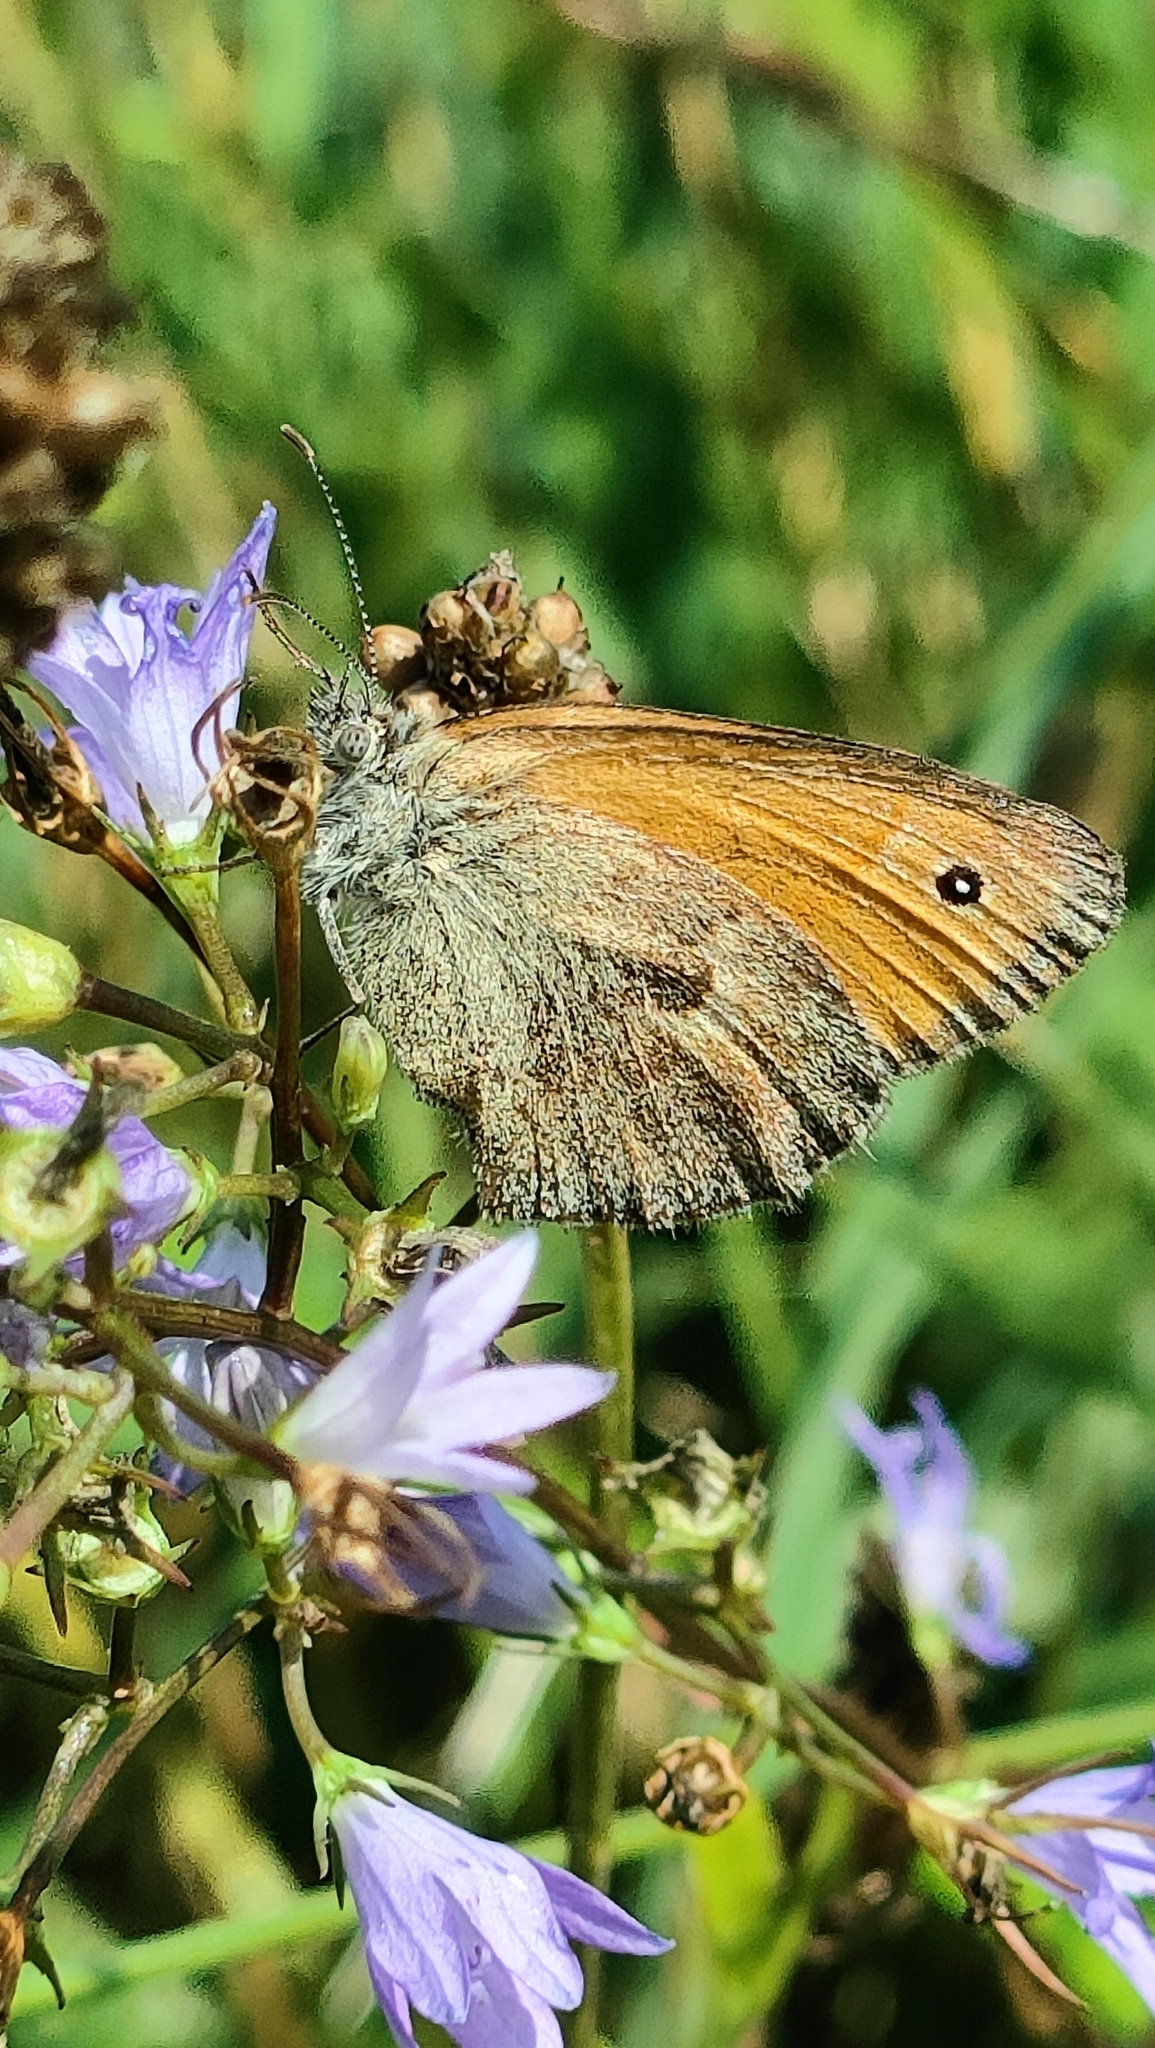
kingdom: Animalia
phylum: Arthropoda
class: Insecta
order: Lepidoptera
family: Nymphalidae
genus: Coenonympha
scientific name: Coenonympha pamphilus
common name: Small heath
